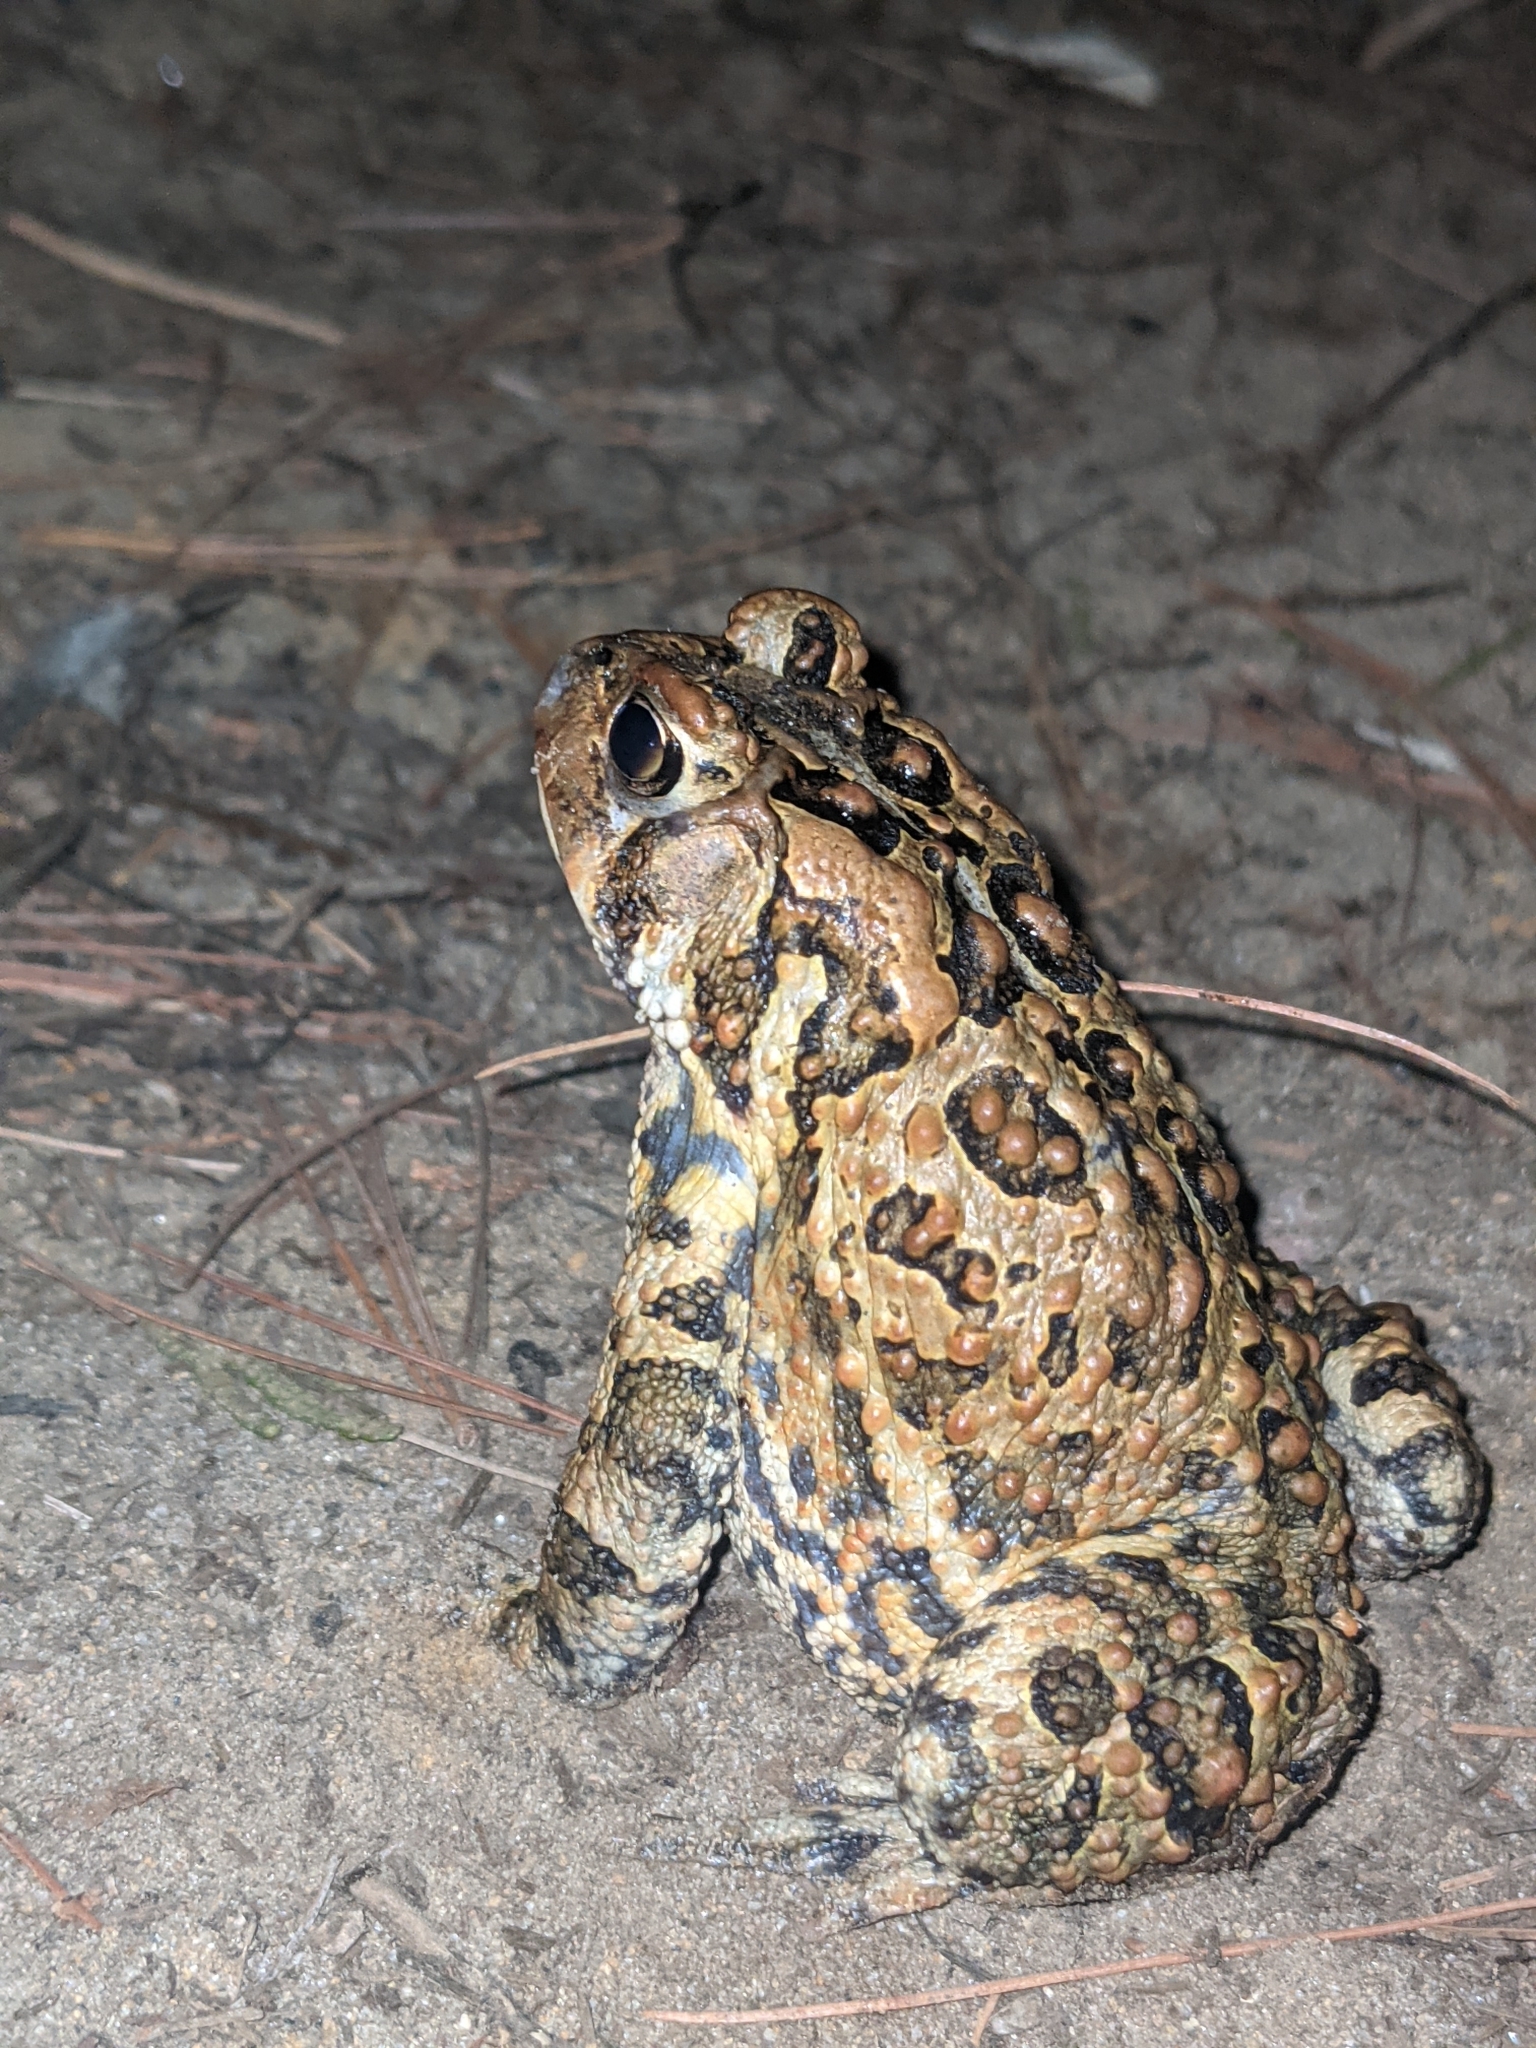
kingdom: Animalia
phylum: Chordata
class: Amphibia
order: Anura
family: Bufonidae
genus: Anaxyrus
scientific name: Anaxyrus americanus
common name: American toad
